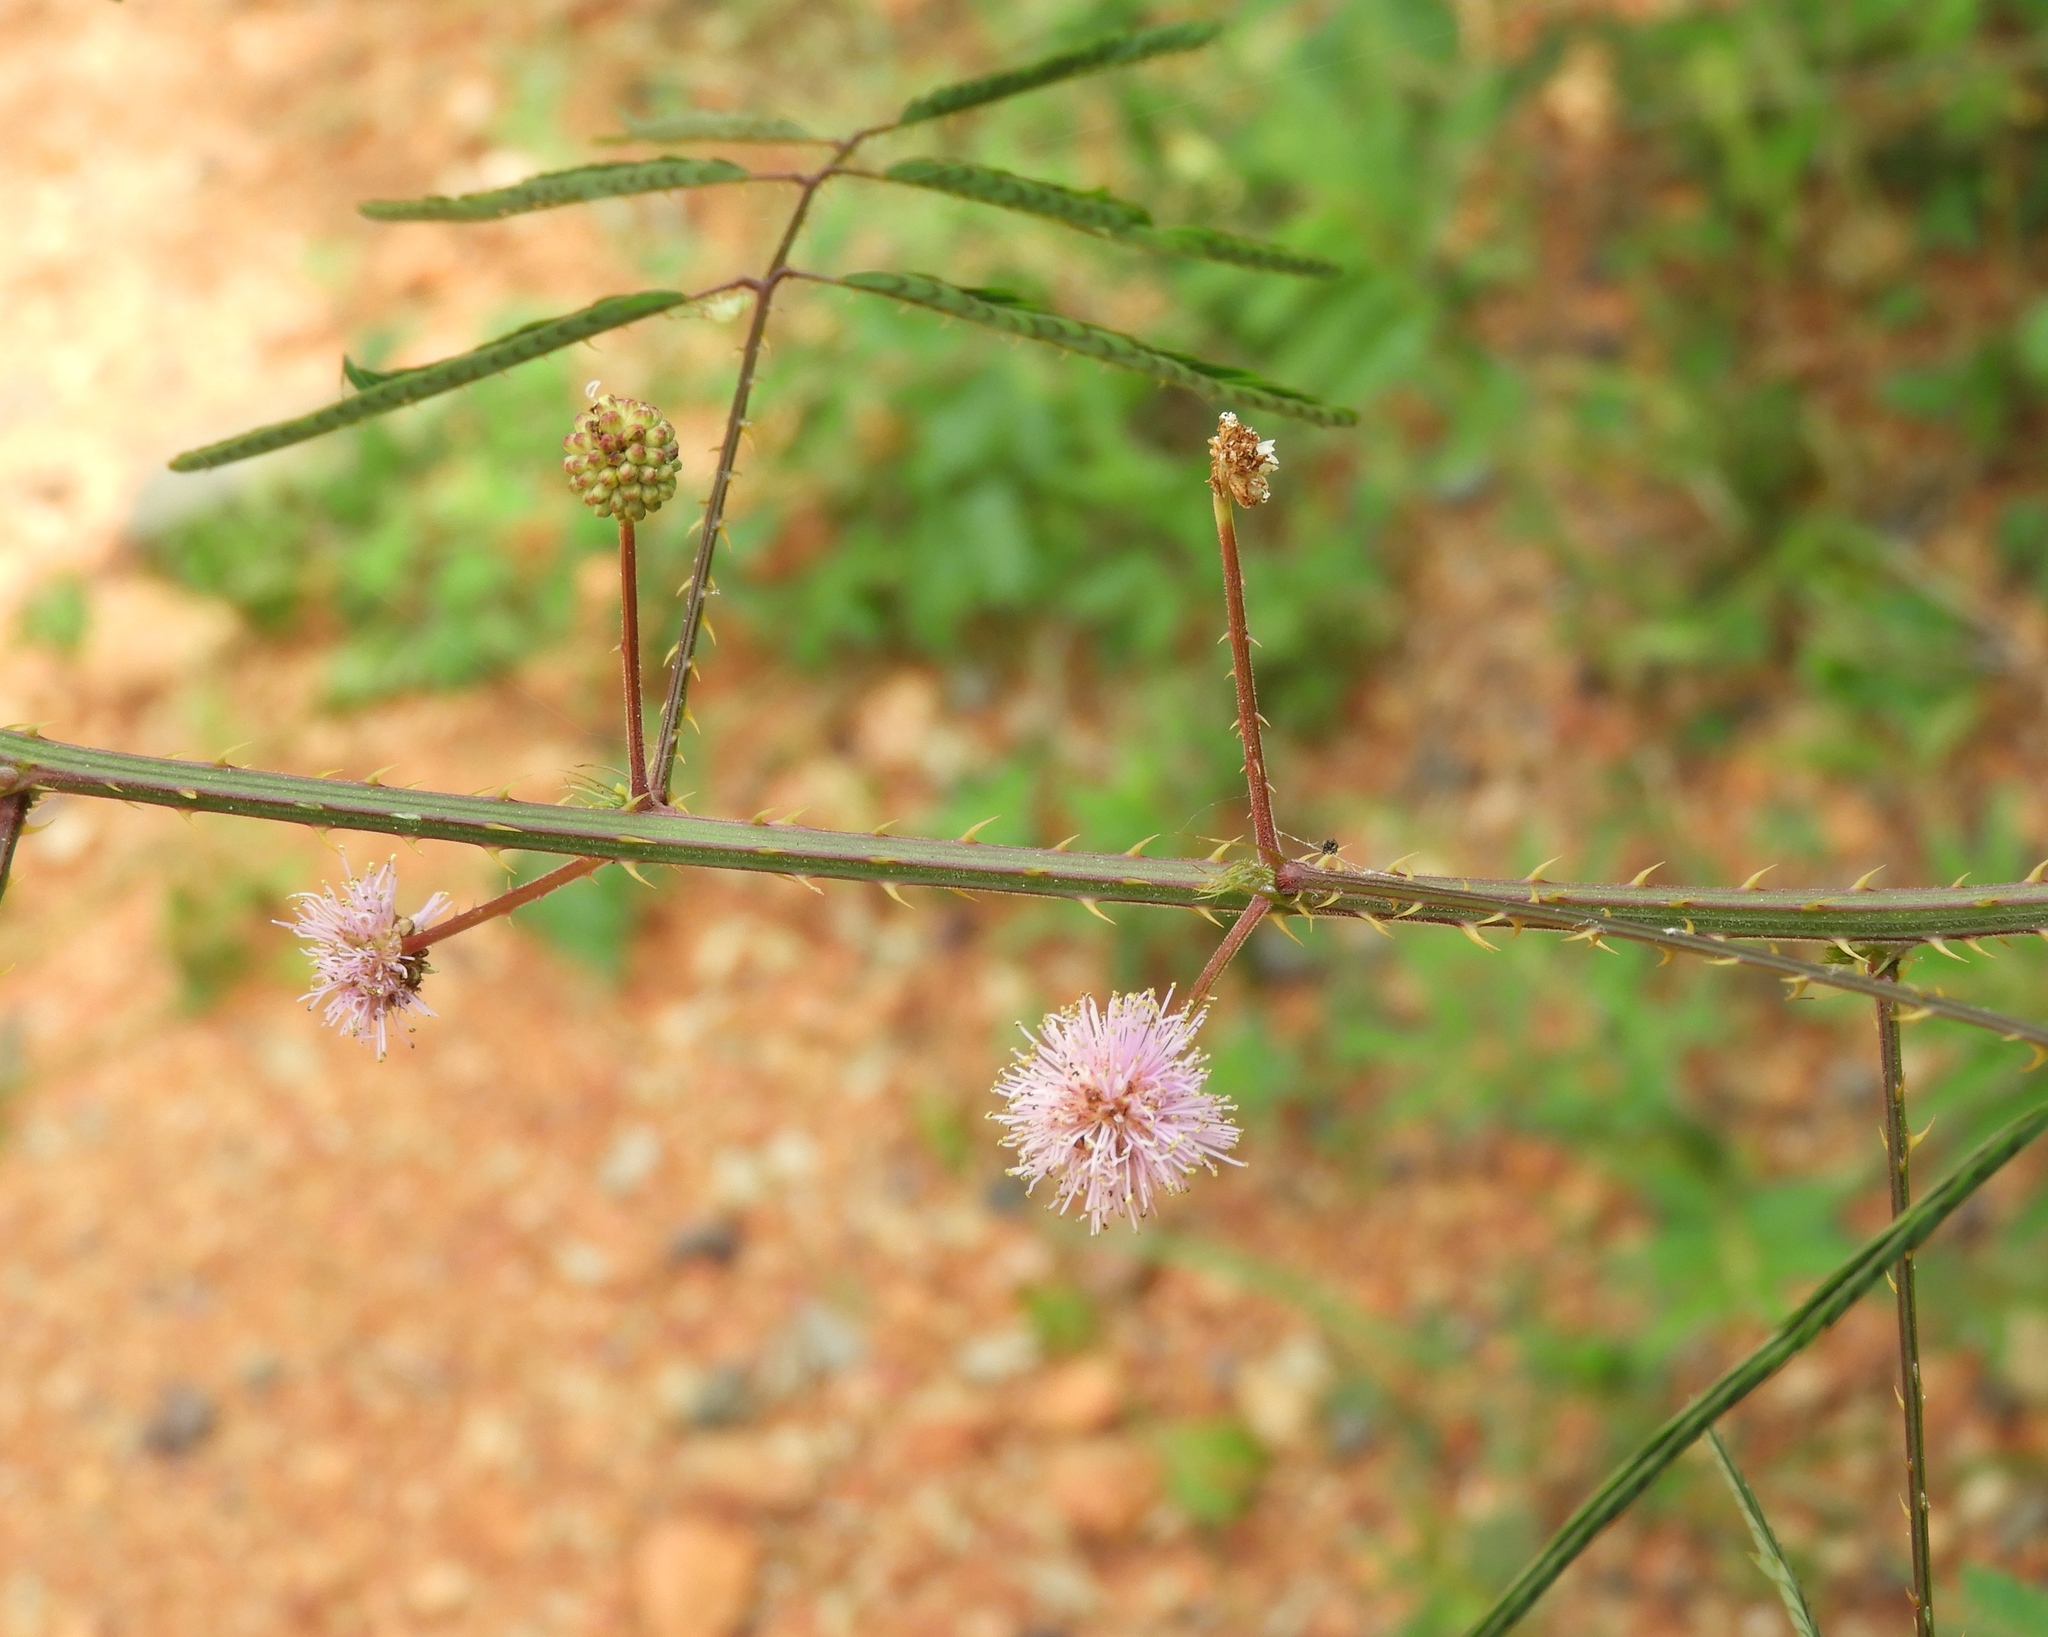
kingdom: Plantae
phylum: Tracheophyta
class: Magnoliopsida
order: Fabales
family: Fabaceae
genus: Mimosa
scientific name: Mimosa quadrivalvis
